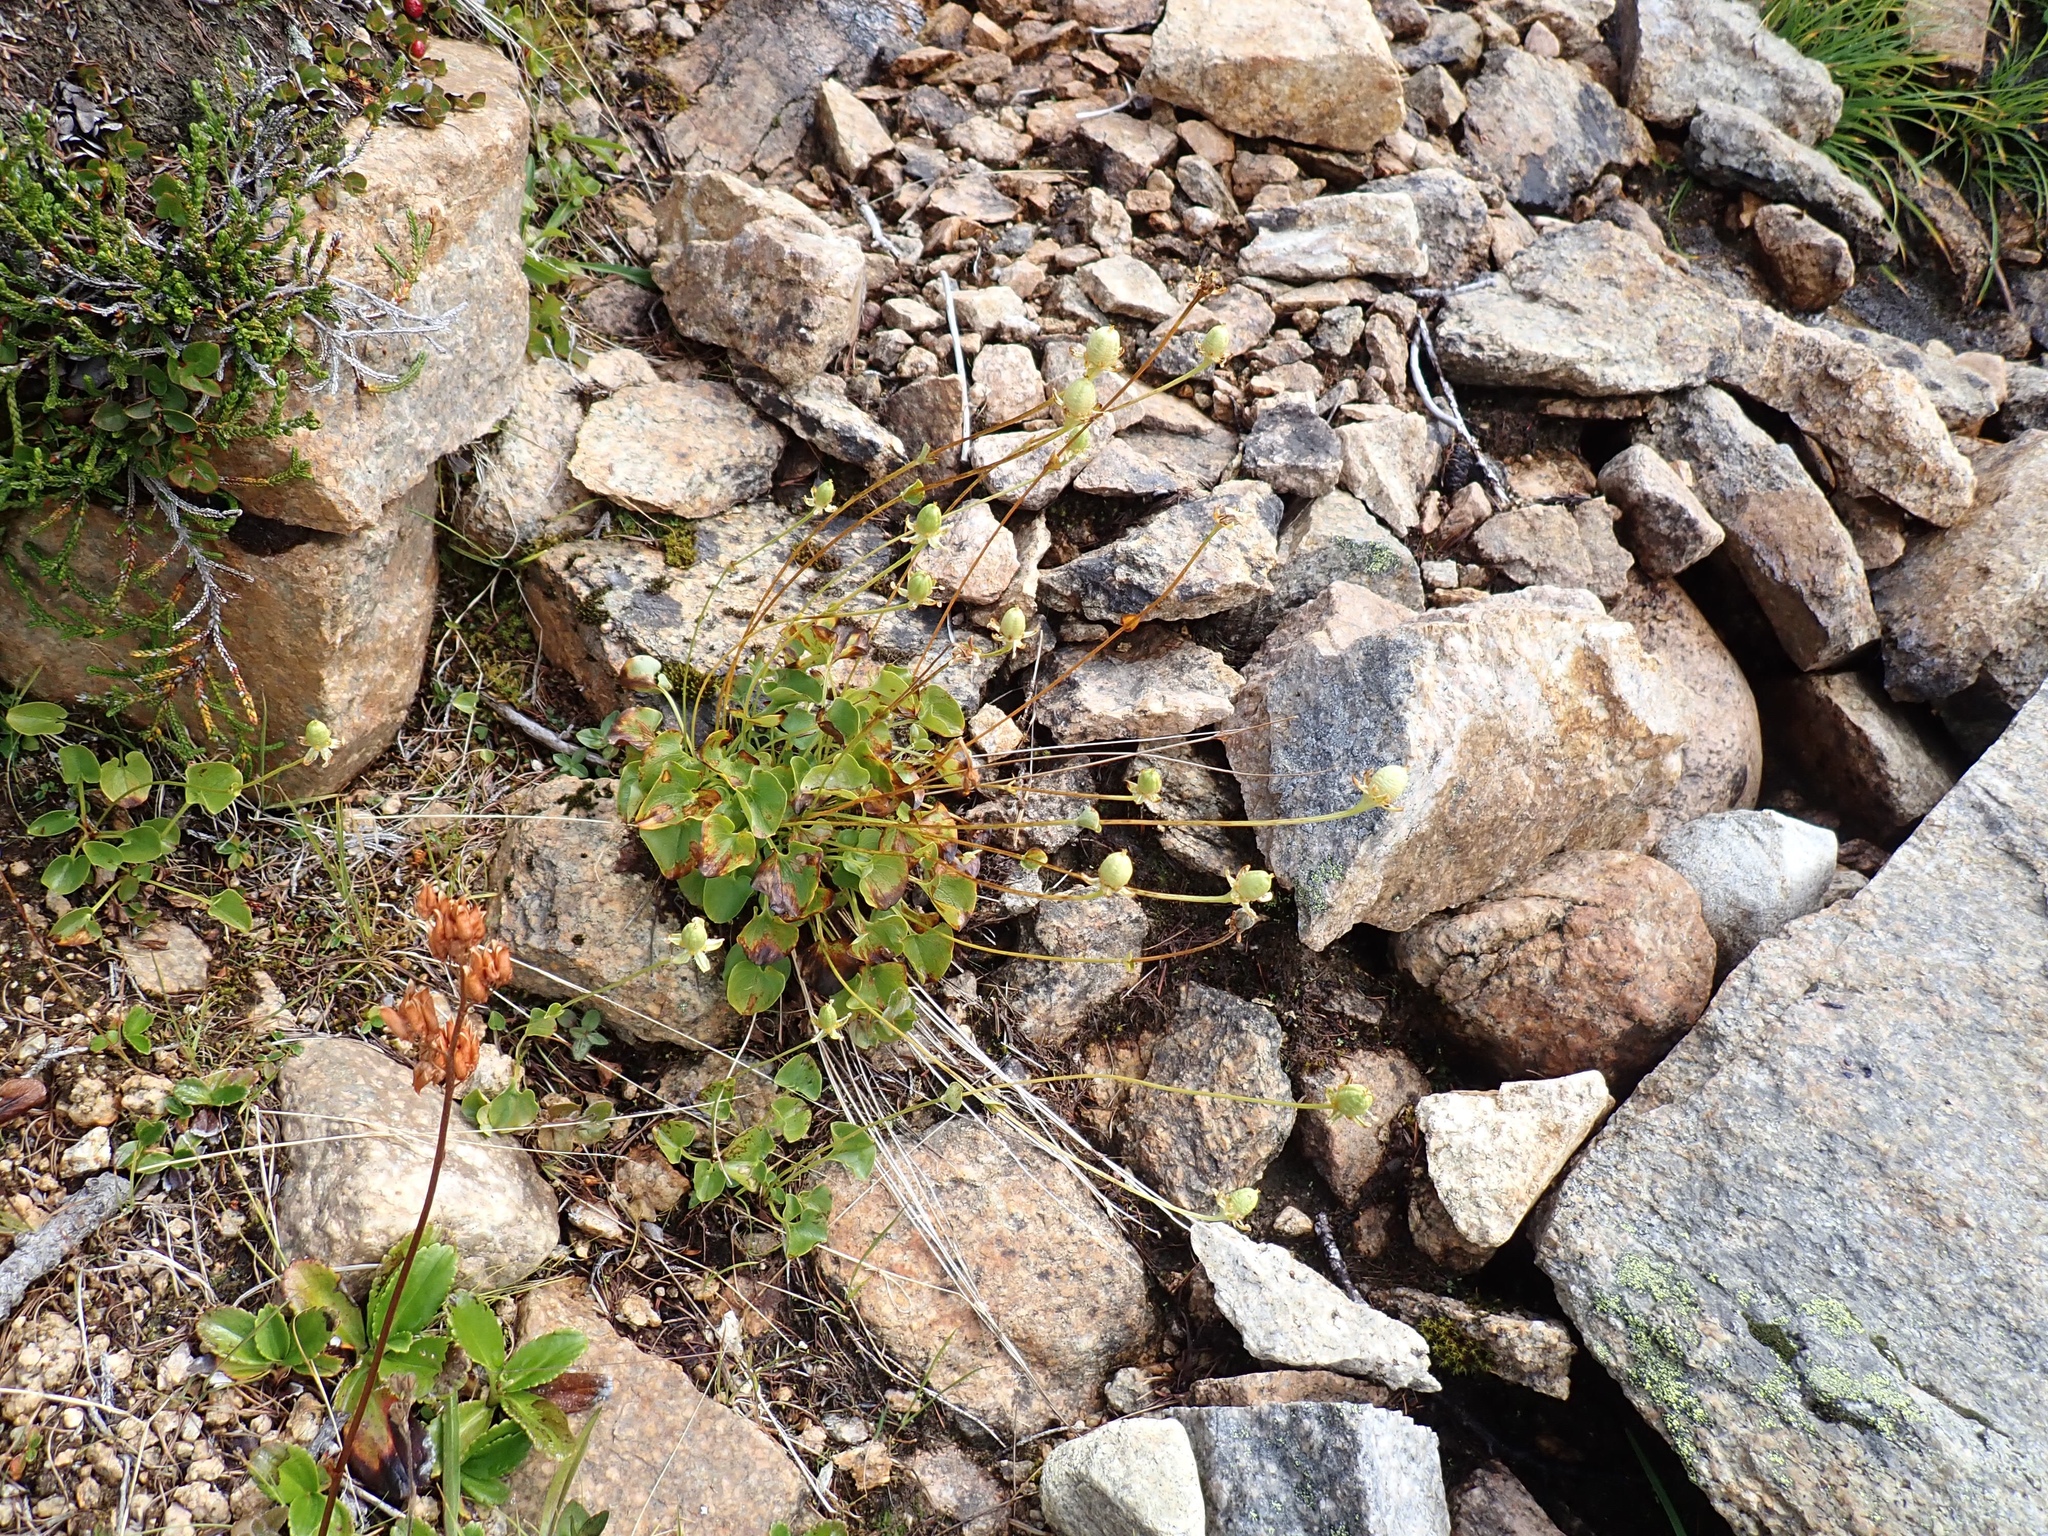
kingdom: Plantae
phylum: Tracheophyta
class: Magnoliopsida
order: Celastrales
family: Parnassiaceae
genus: Parnassia
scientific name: Parnassia fimbriata
